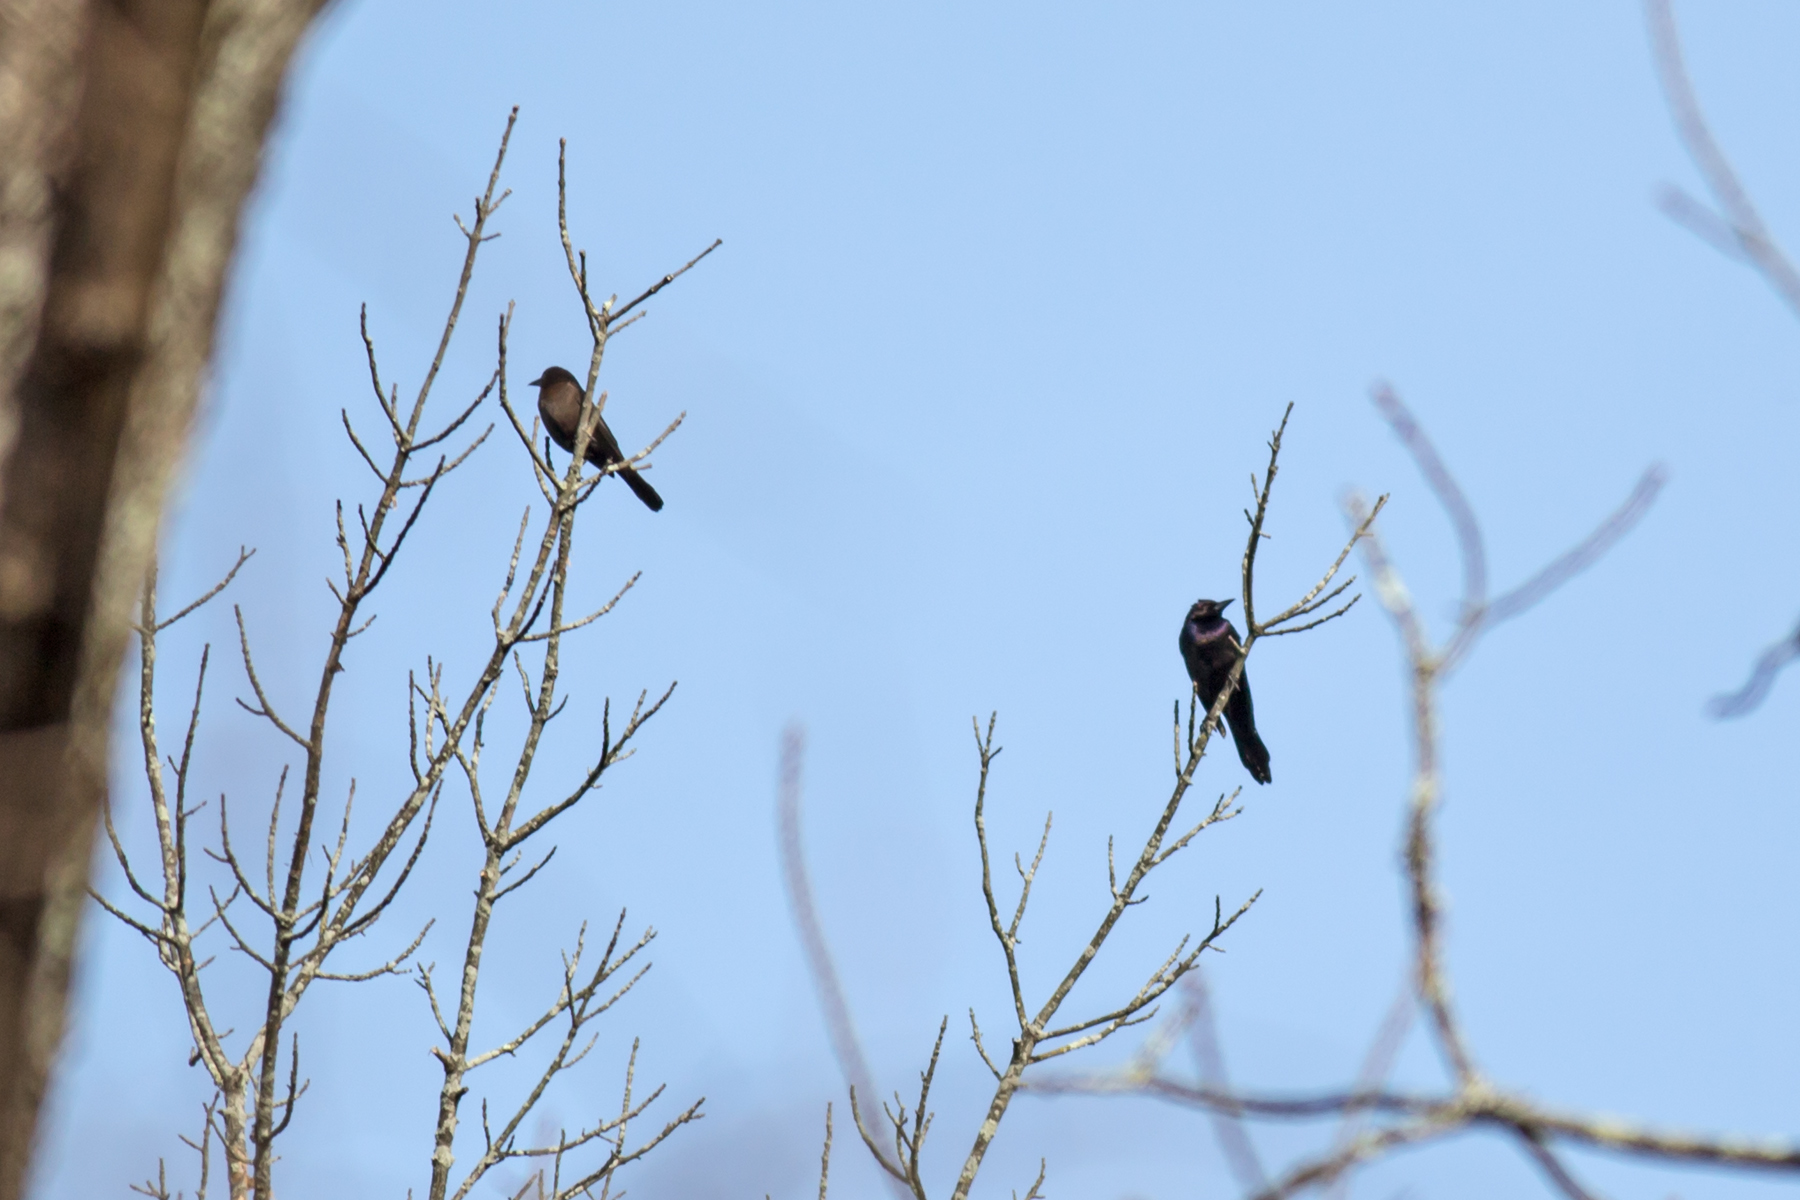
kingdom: Animalia
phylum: Chordata
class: Aves
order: Passeriformes
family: Icteridae
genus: Quiscalus
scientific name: Quiscalus quiscula
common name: Common grackle
